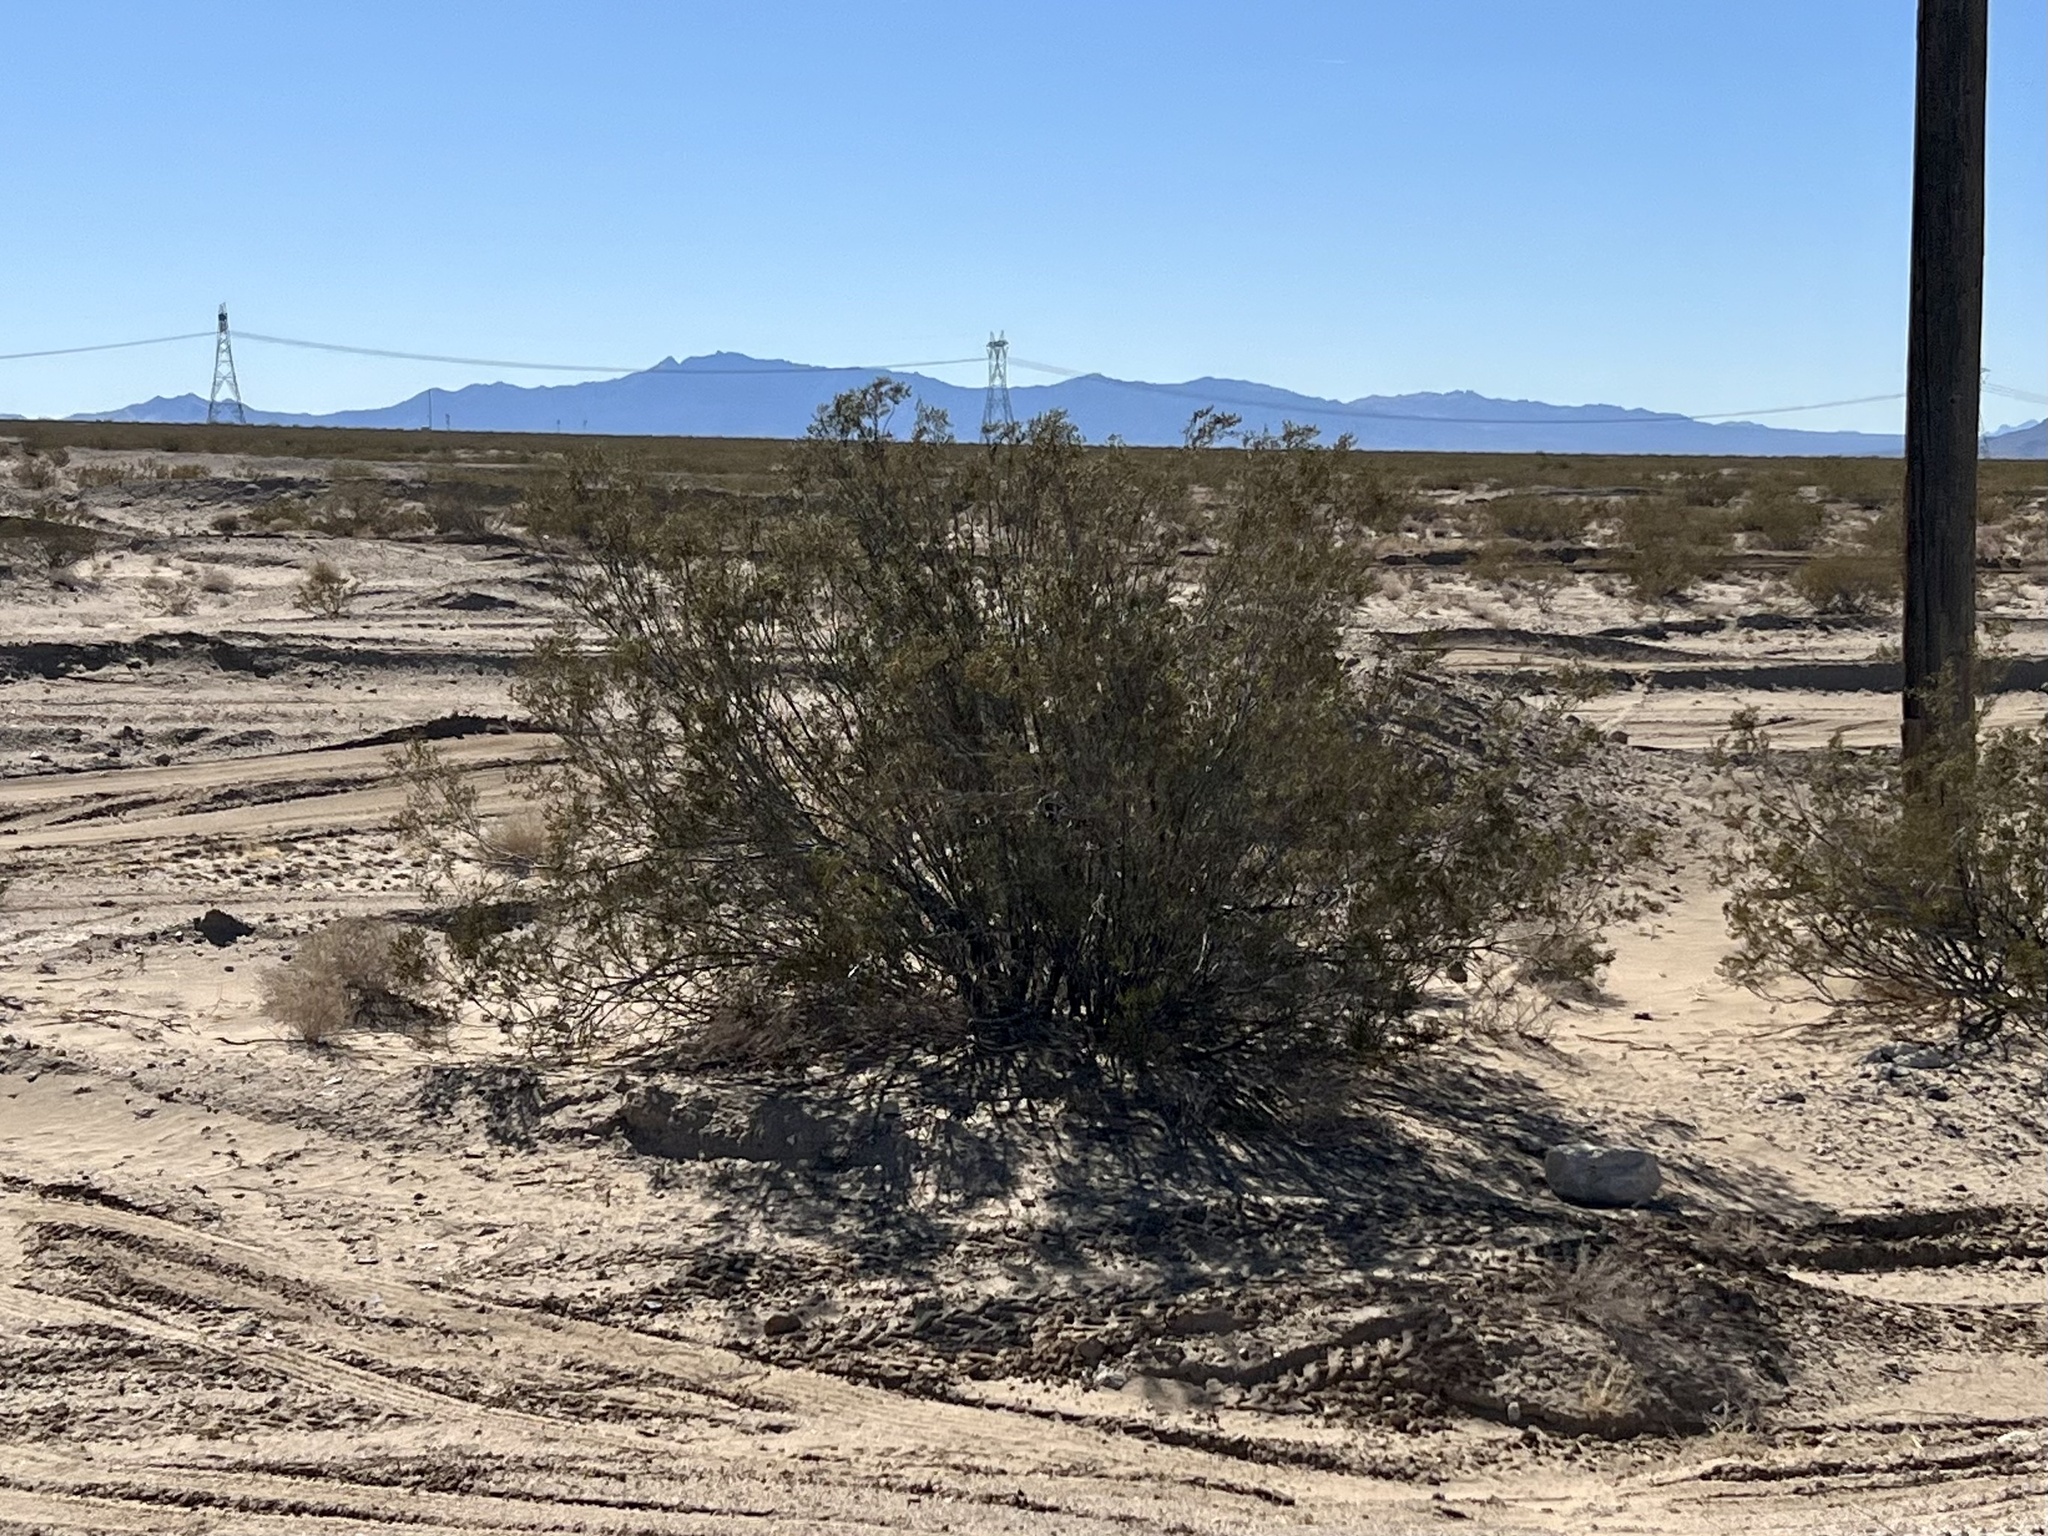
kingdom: Plantae
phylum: Tracheophyta
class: Magnoliopsida
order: Zygophyllales
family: Zygophyllaceae
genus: Larrea
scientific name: Larrea tridentata
